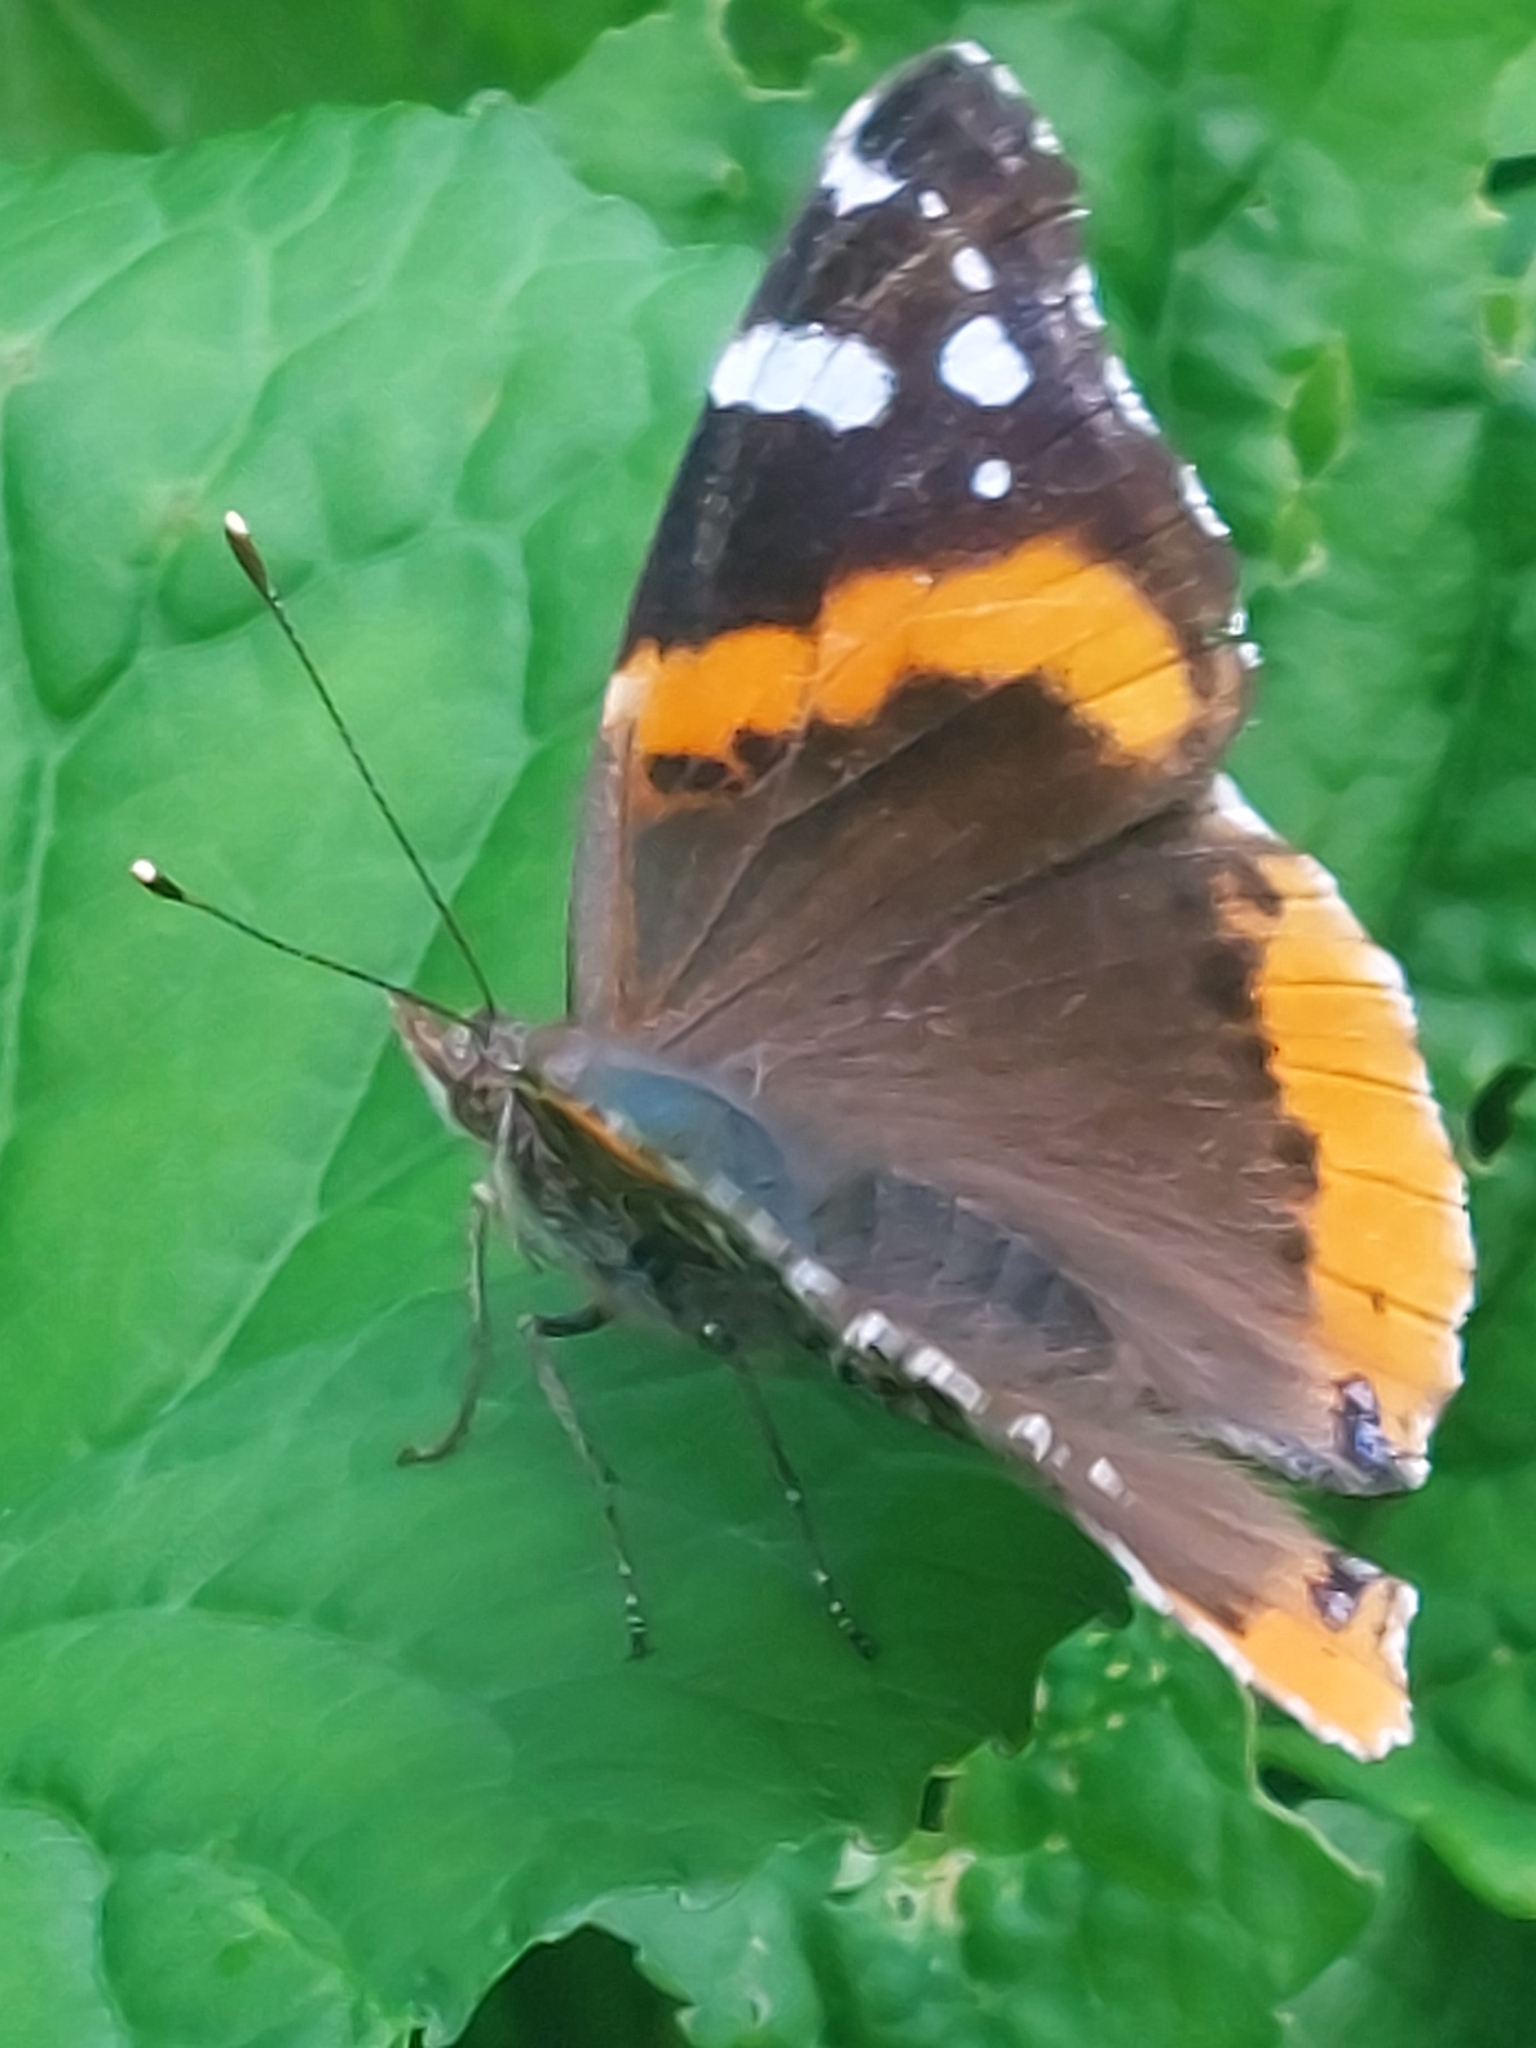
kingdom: Animalia
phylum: Arthropoda
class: Insecta
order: Lepidoptera
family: Nymphalidae
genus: Vanessa
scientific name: Vanessa atalanta
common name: Red admiral
